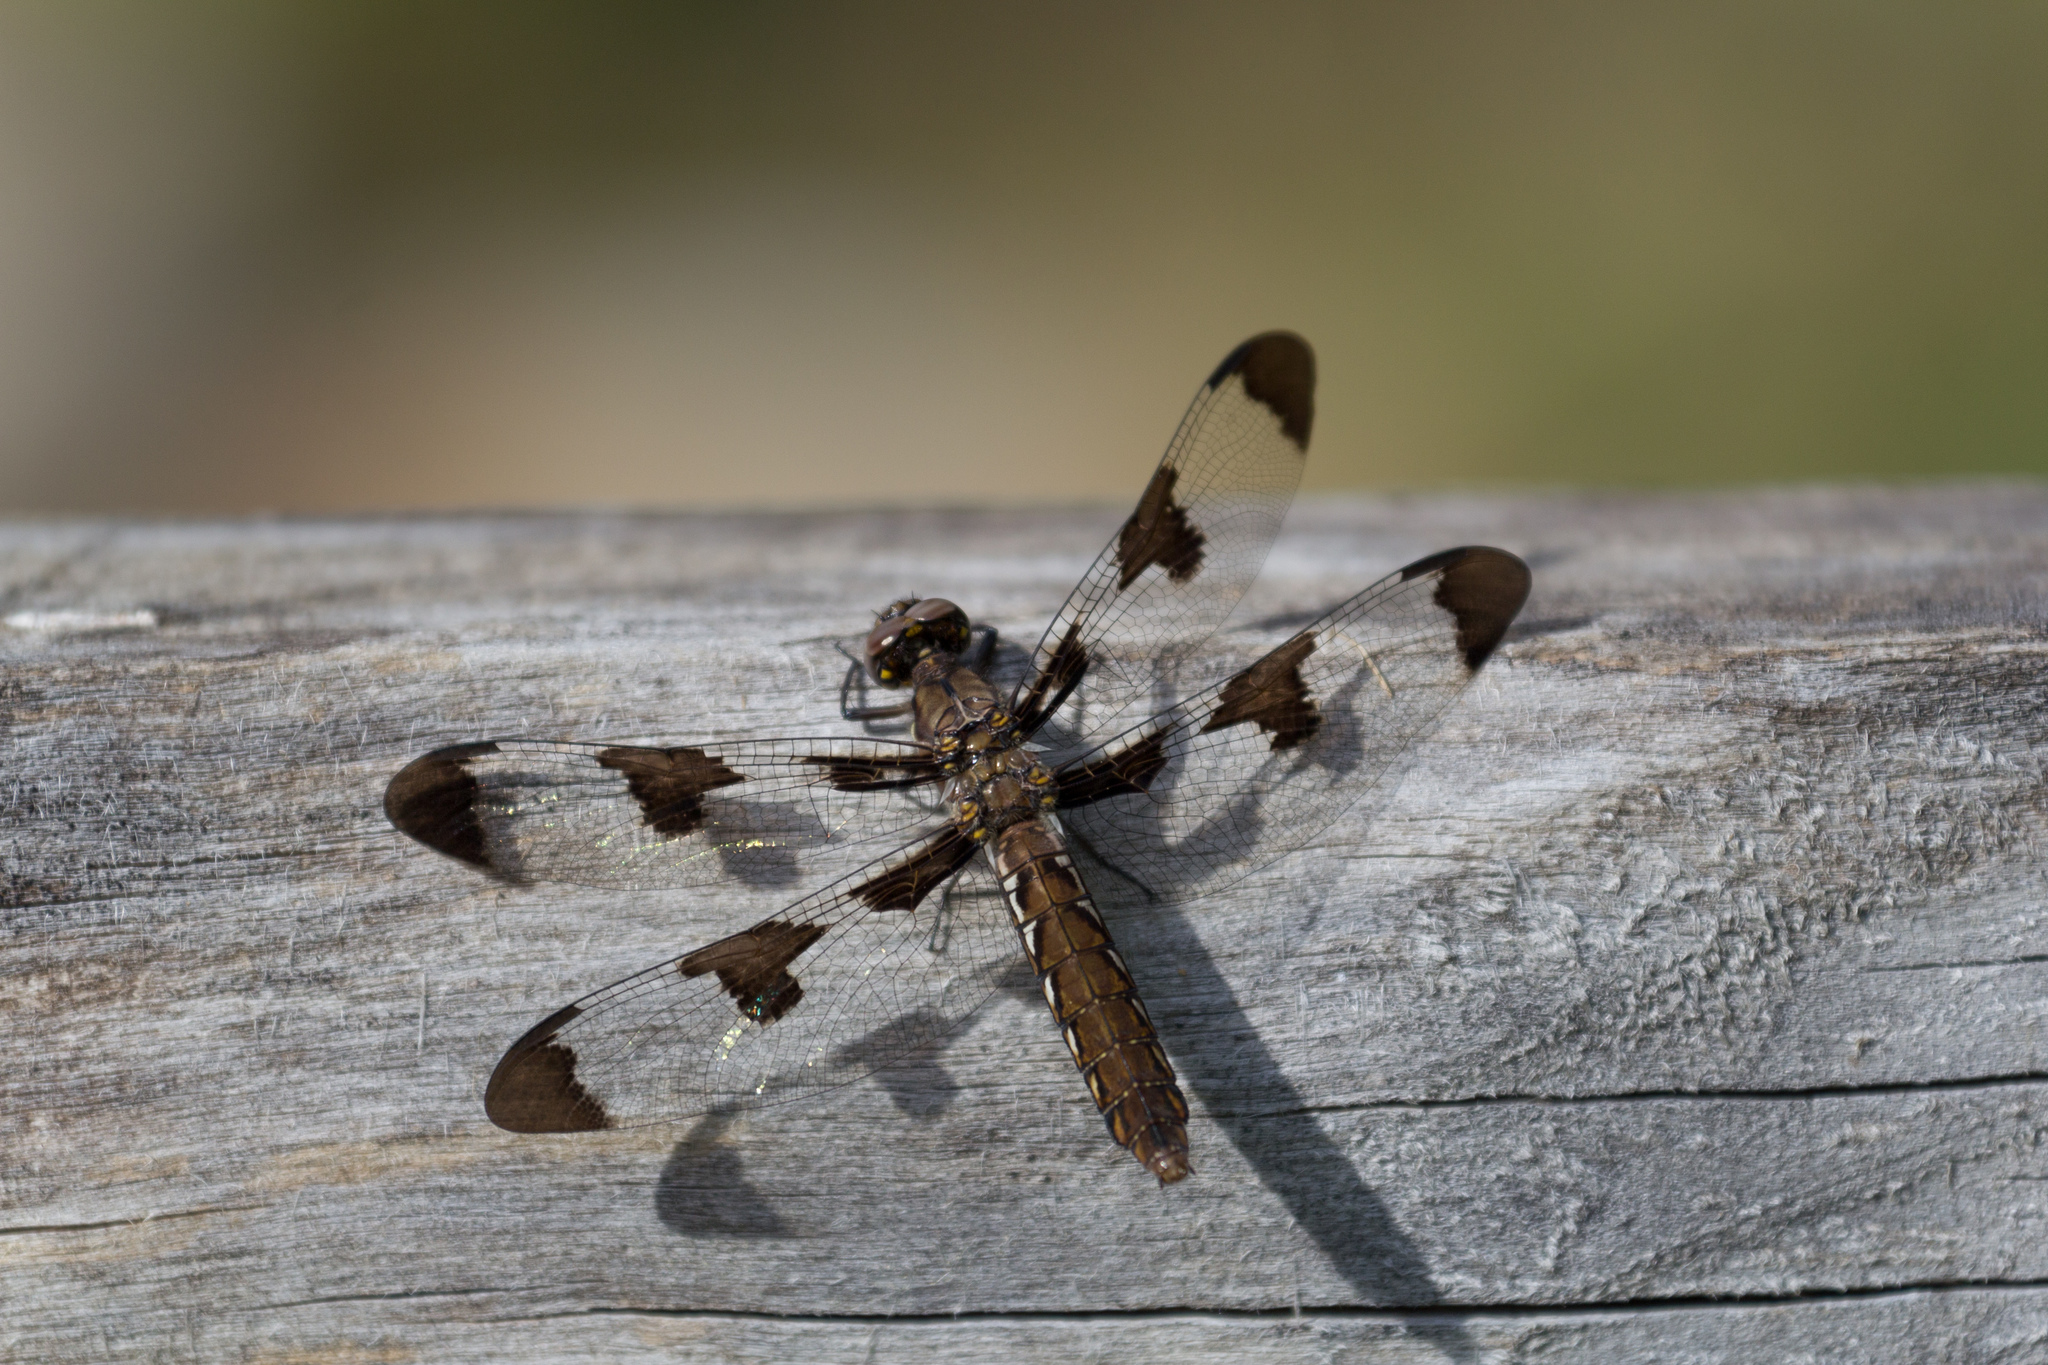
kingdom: Animalia
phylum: Arthropoda
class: Insecta
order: Odonata
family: Libellulidae
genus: Plathemis
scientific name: Plathemis lydia
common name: Common whitetail
